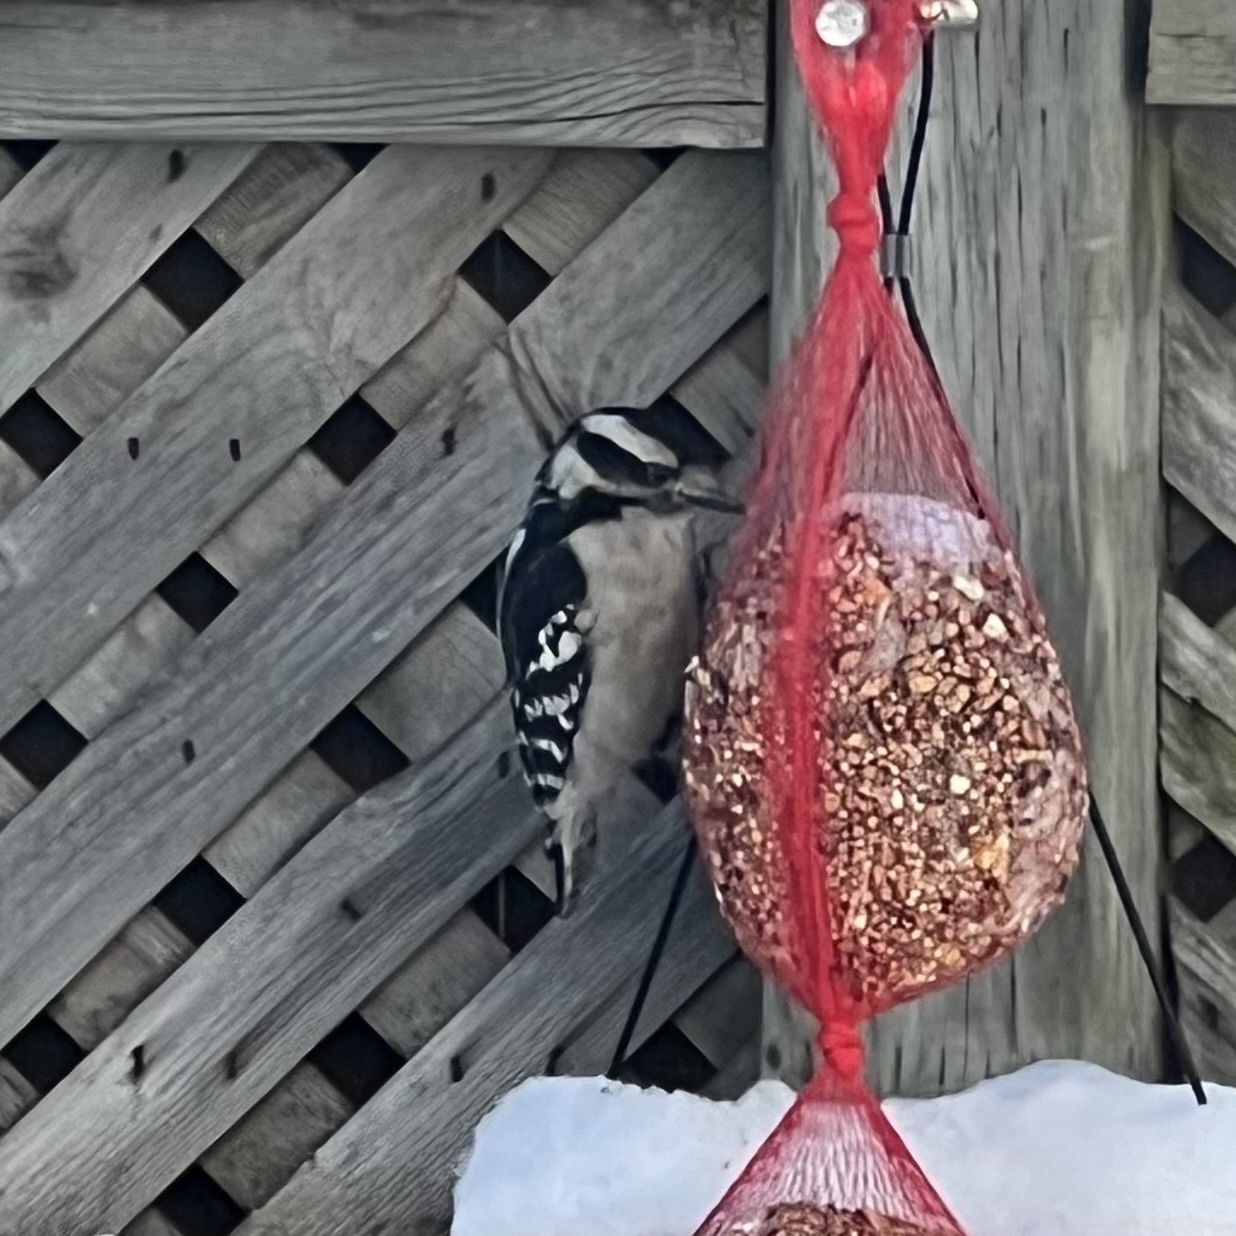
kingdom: Animalia
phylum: Chordata
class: Aves
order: Piciformes
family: Picidae
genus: Dryobates
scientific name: Dryobates pubescens
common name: Downy woodpecker
